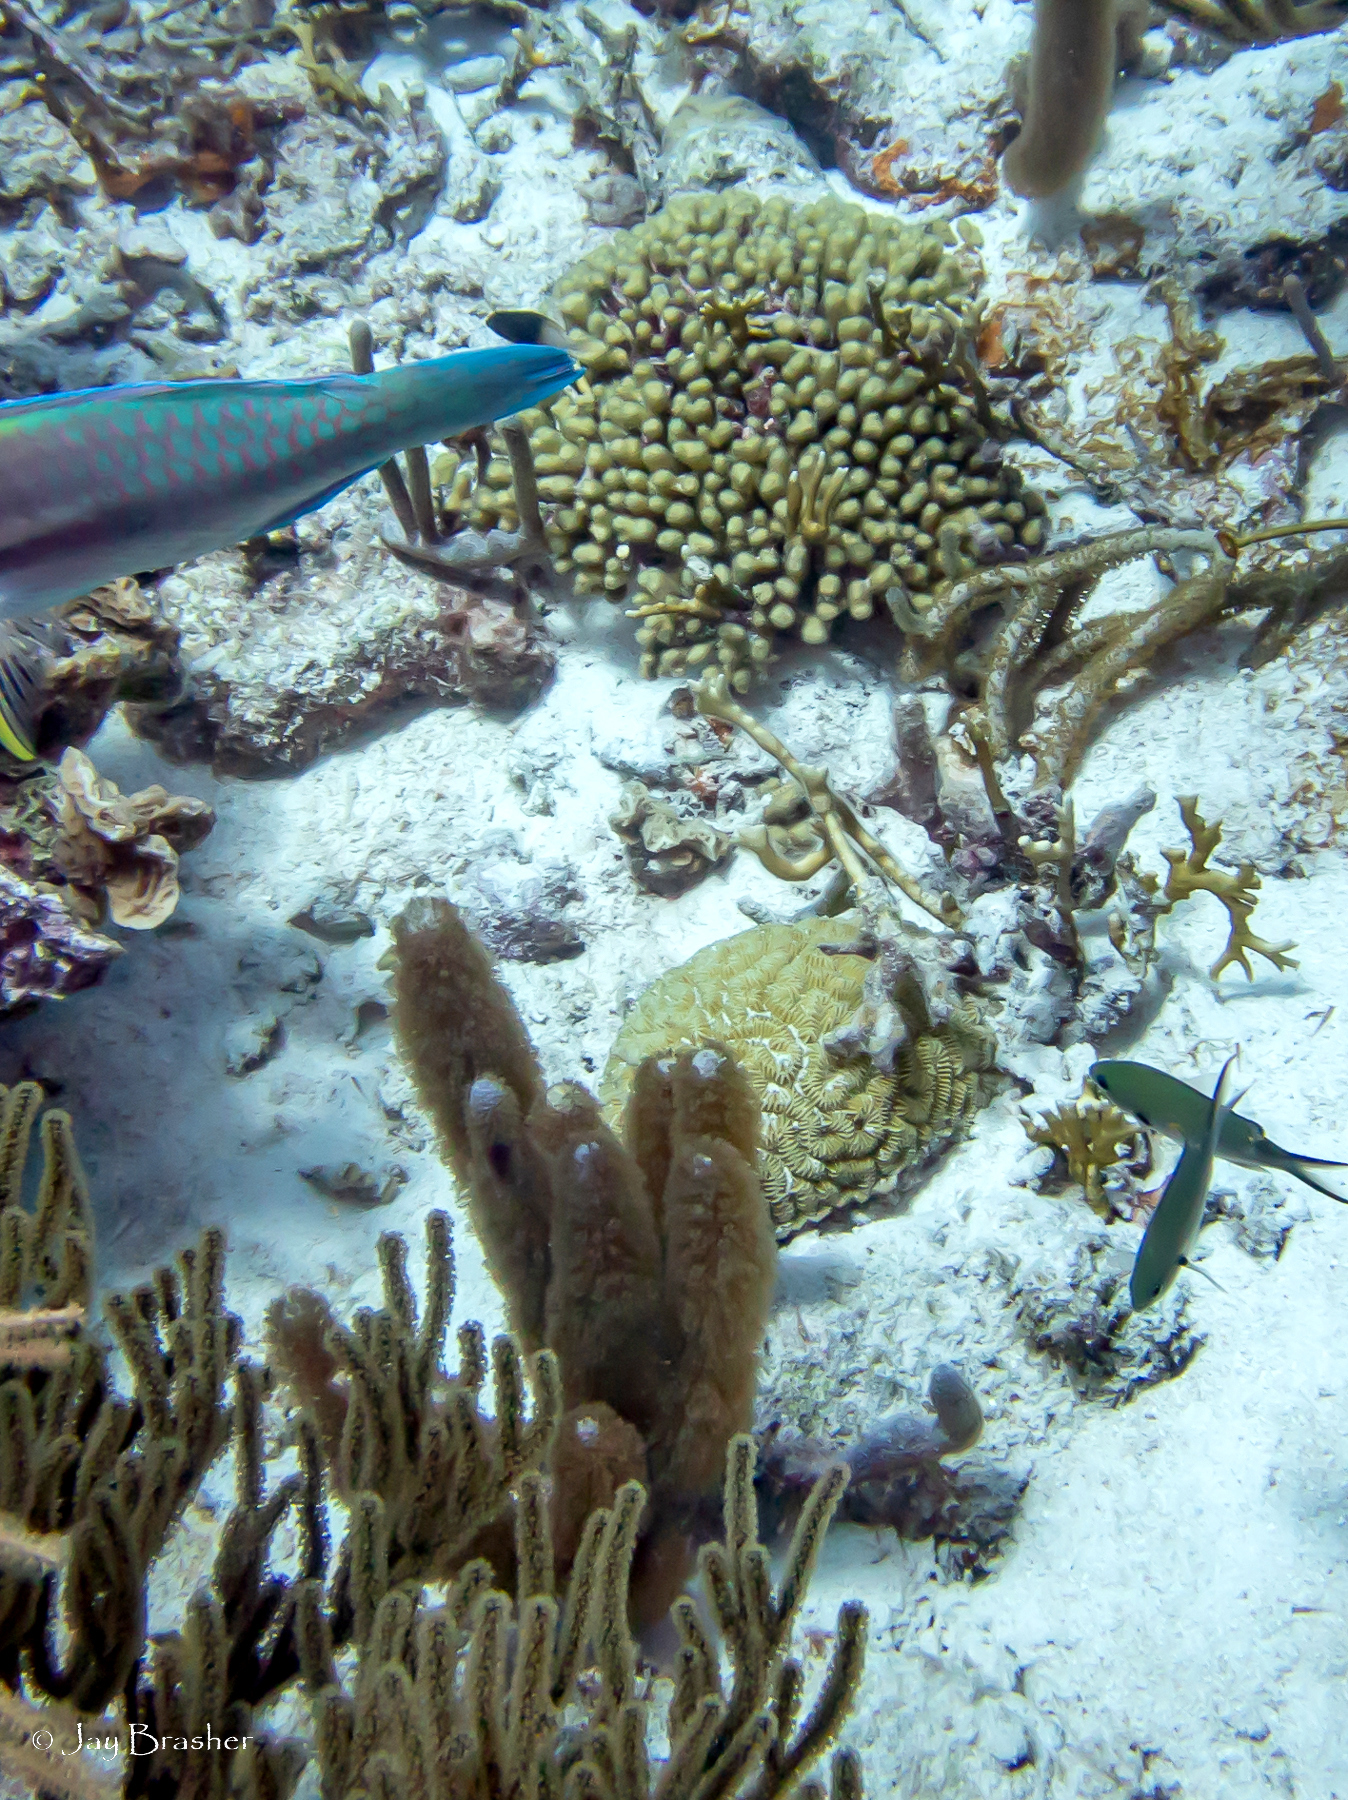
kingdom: Animalia
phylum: Chordata
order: Perciformes
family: Pomacentridae
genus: Chromis
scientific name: Chromis multilineata
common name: Brown chromis
